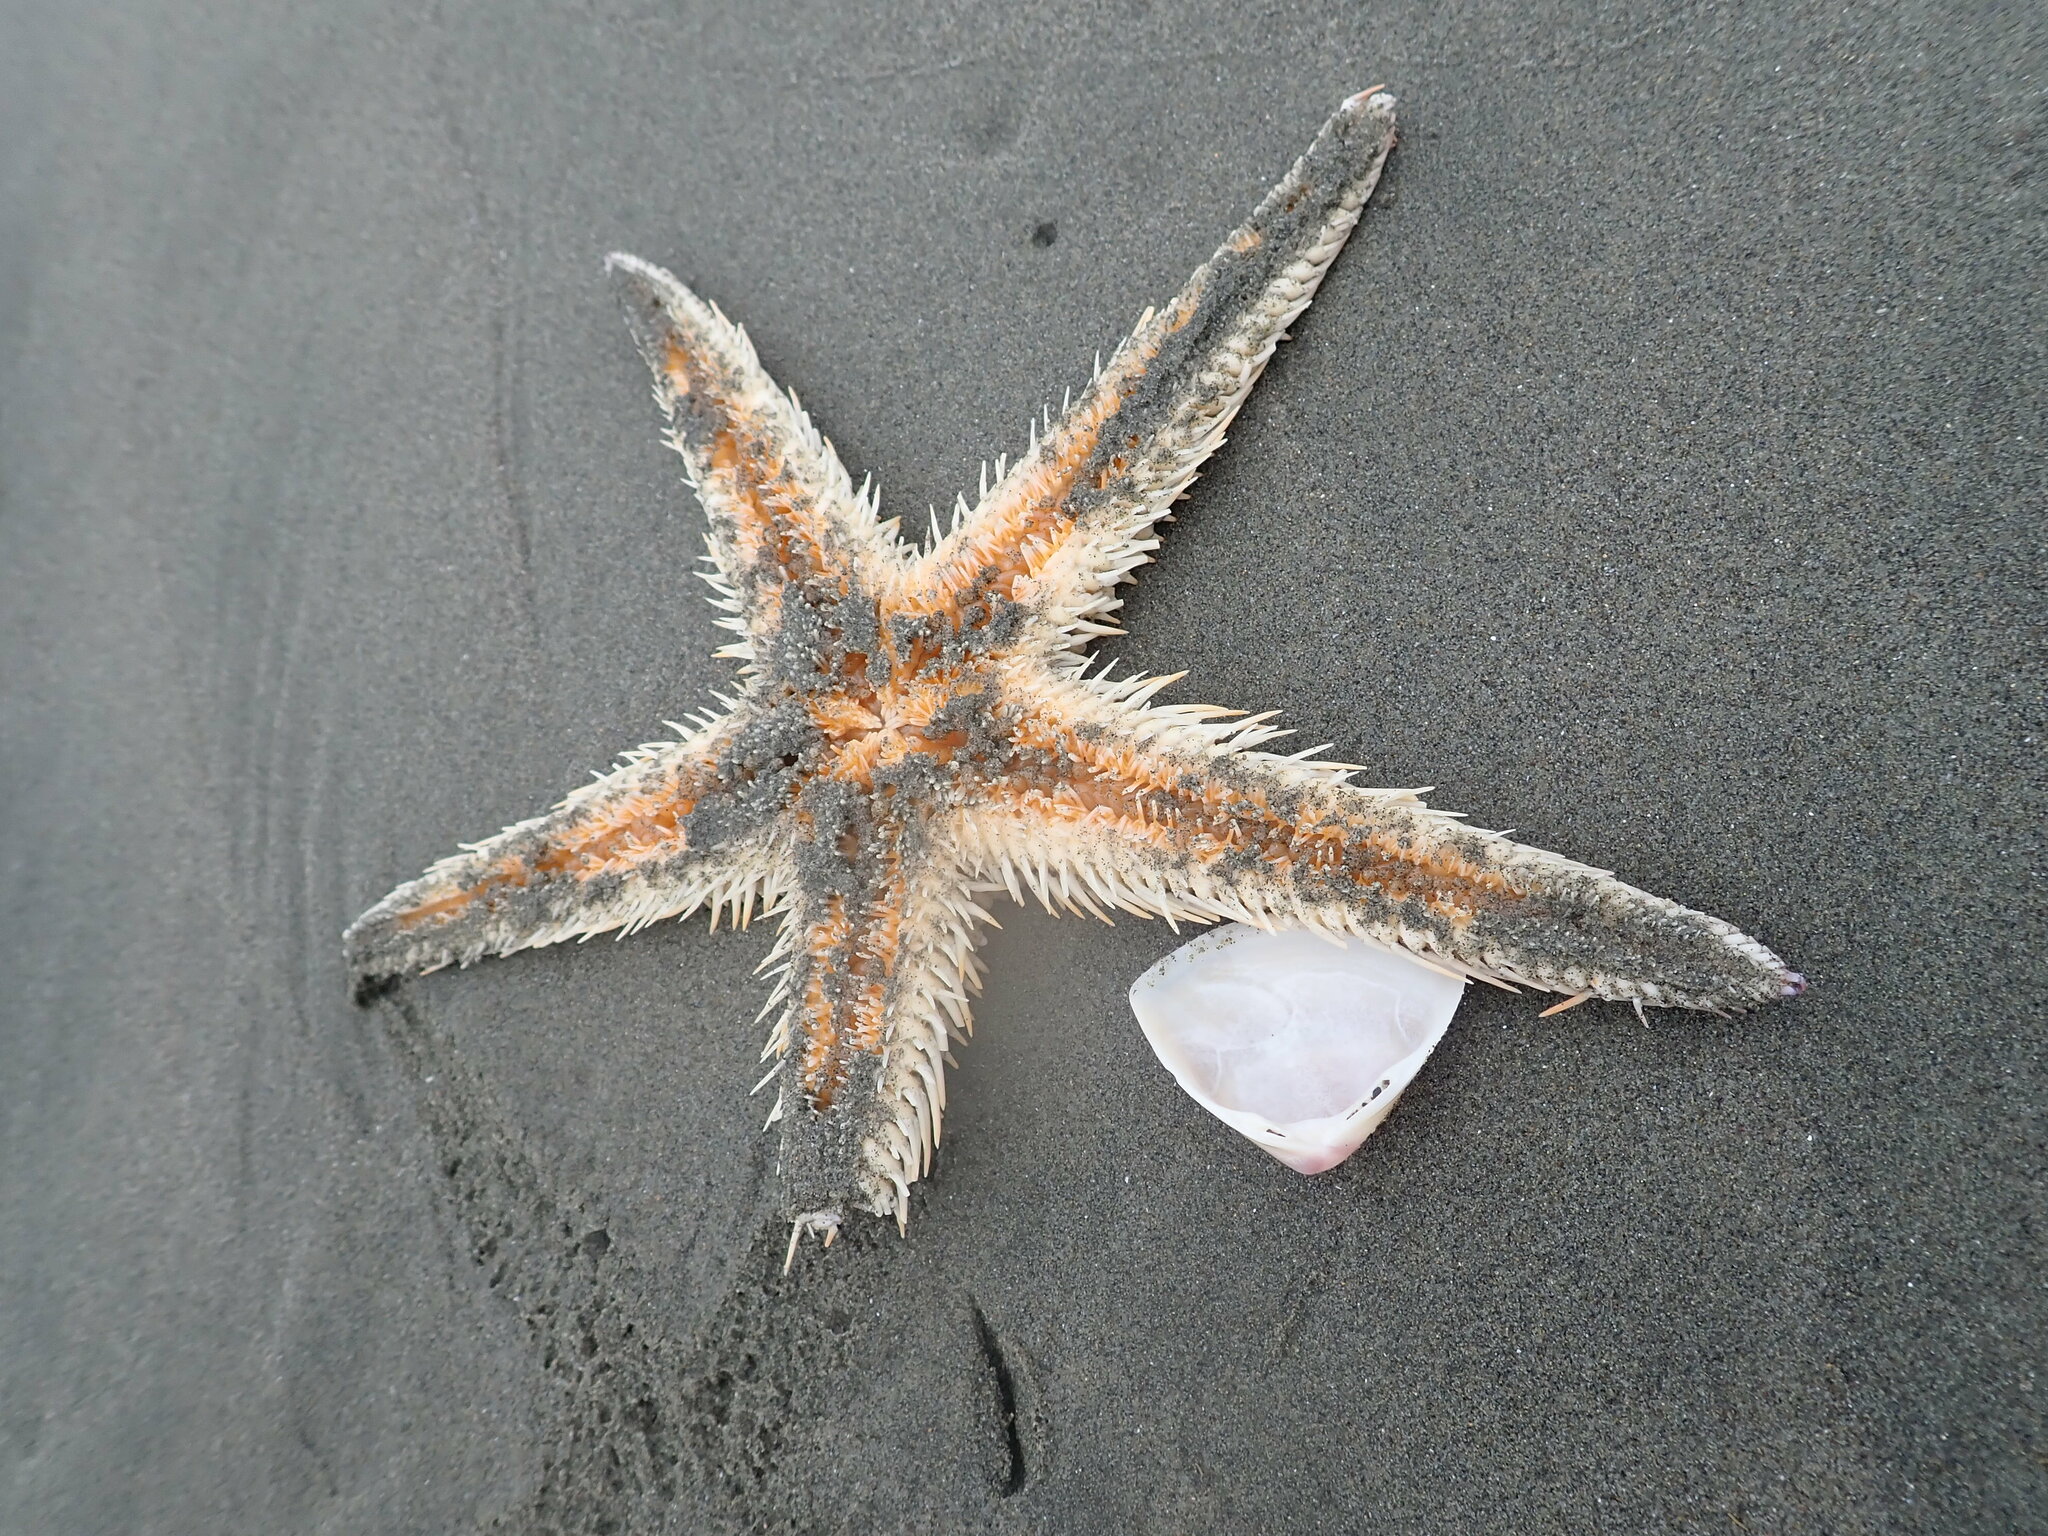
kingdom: Animalia
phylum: Echinodermata
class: Asteroidea
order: Paxillosida
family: Astropectinidae
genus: Astropecten
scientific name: Astropecten polyacanthus
